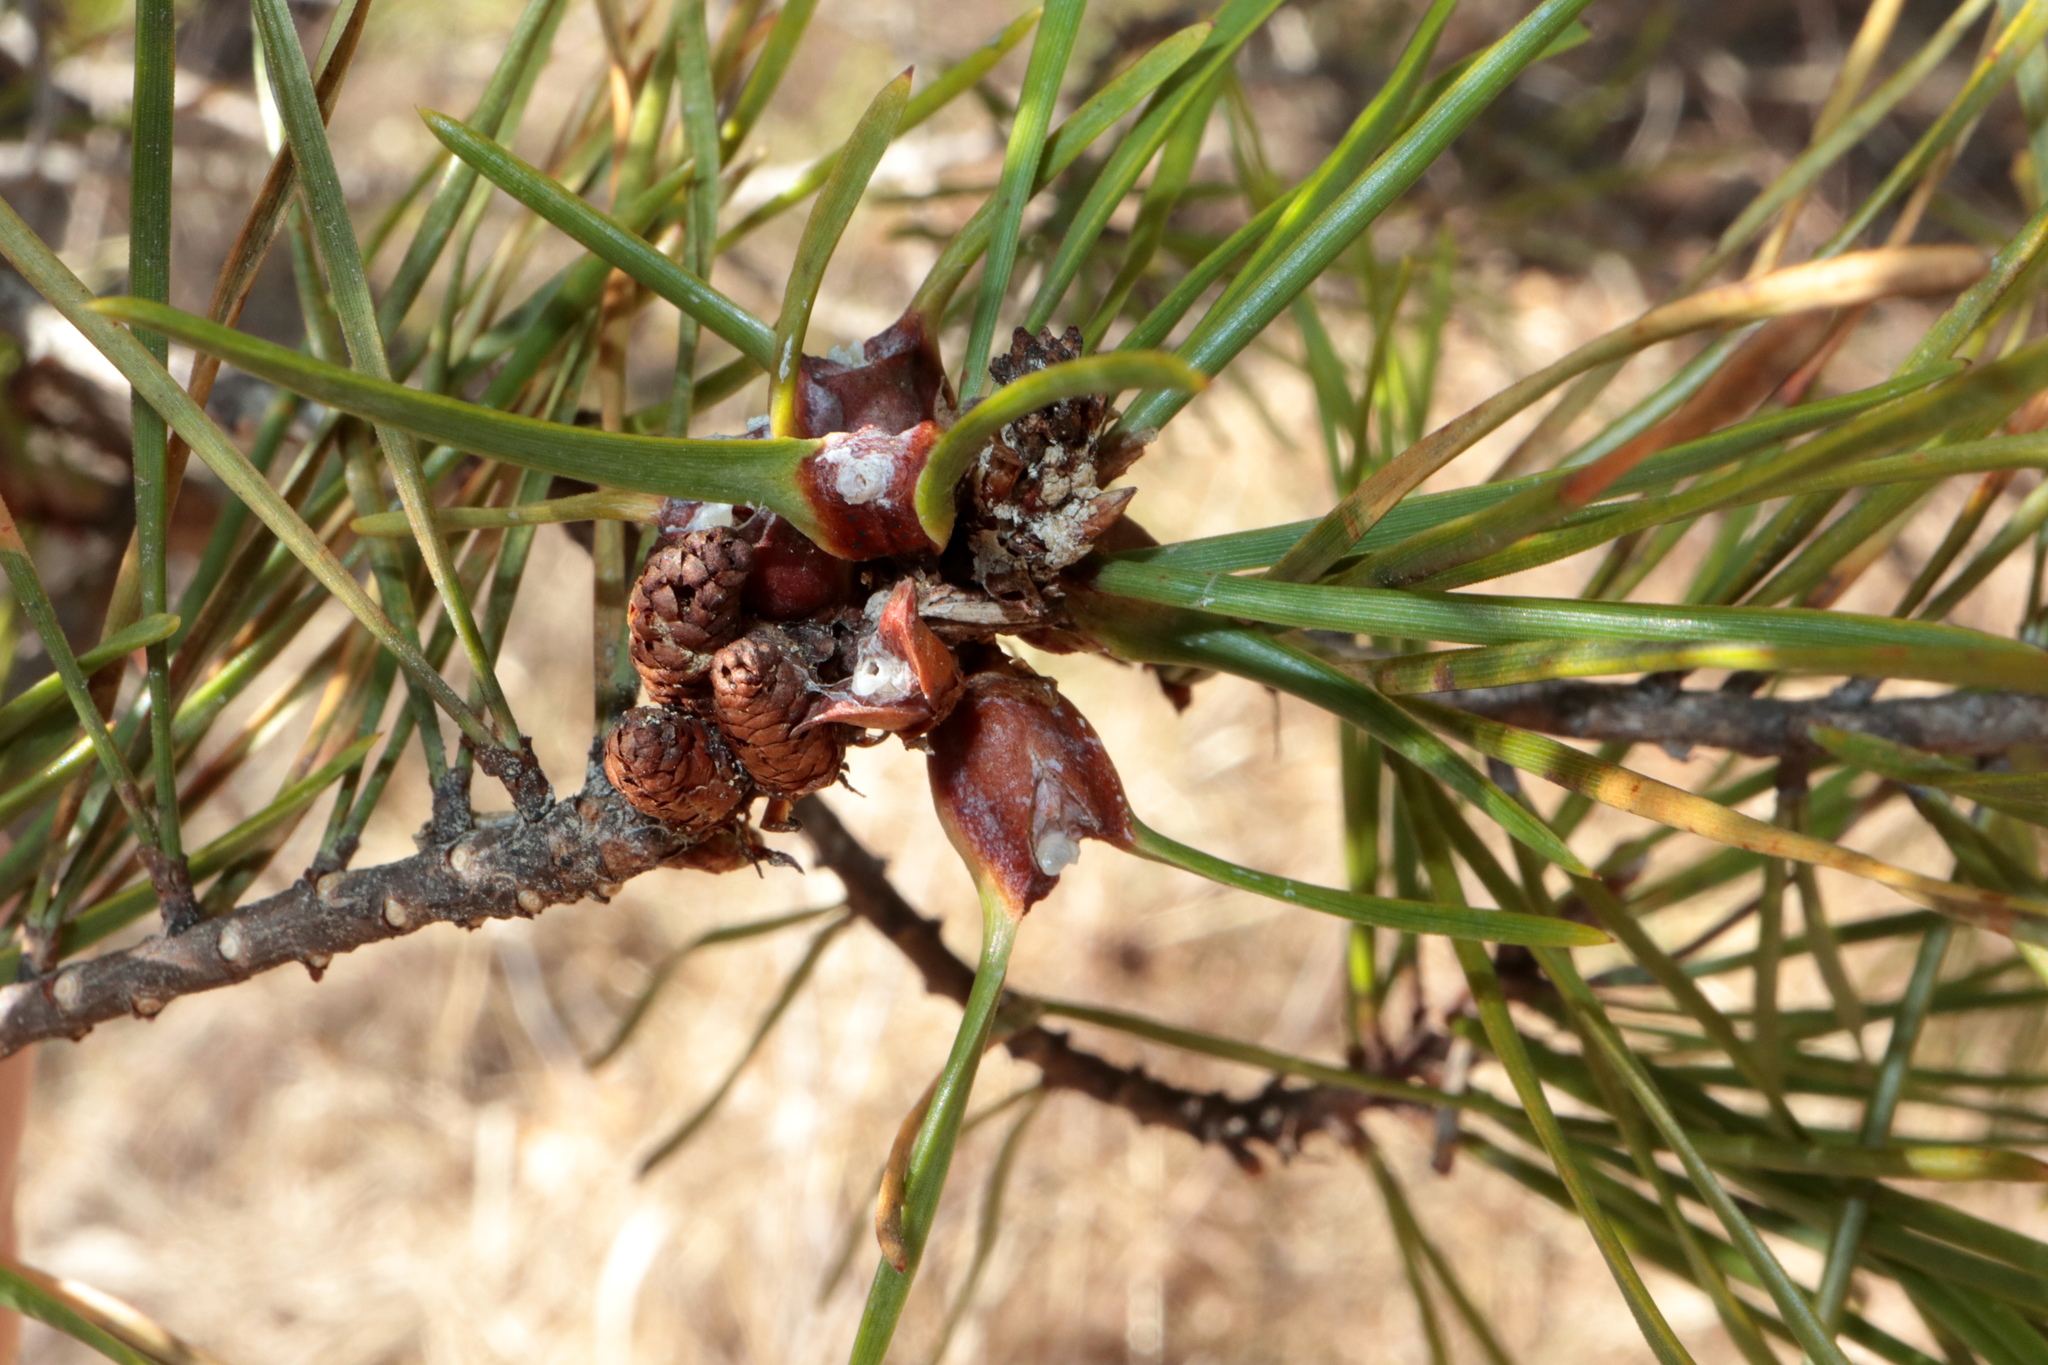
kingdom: Animalia
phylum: Arthropoda
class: Insecta
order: Diptera
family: Cecidomyiidae
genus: Thecodiplosis
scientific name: Thecodiplosis brachynteroides
